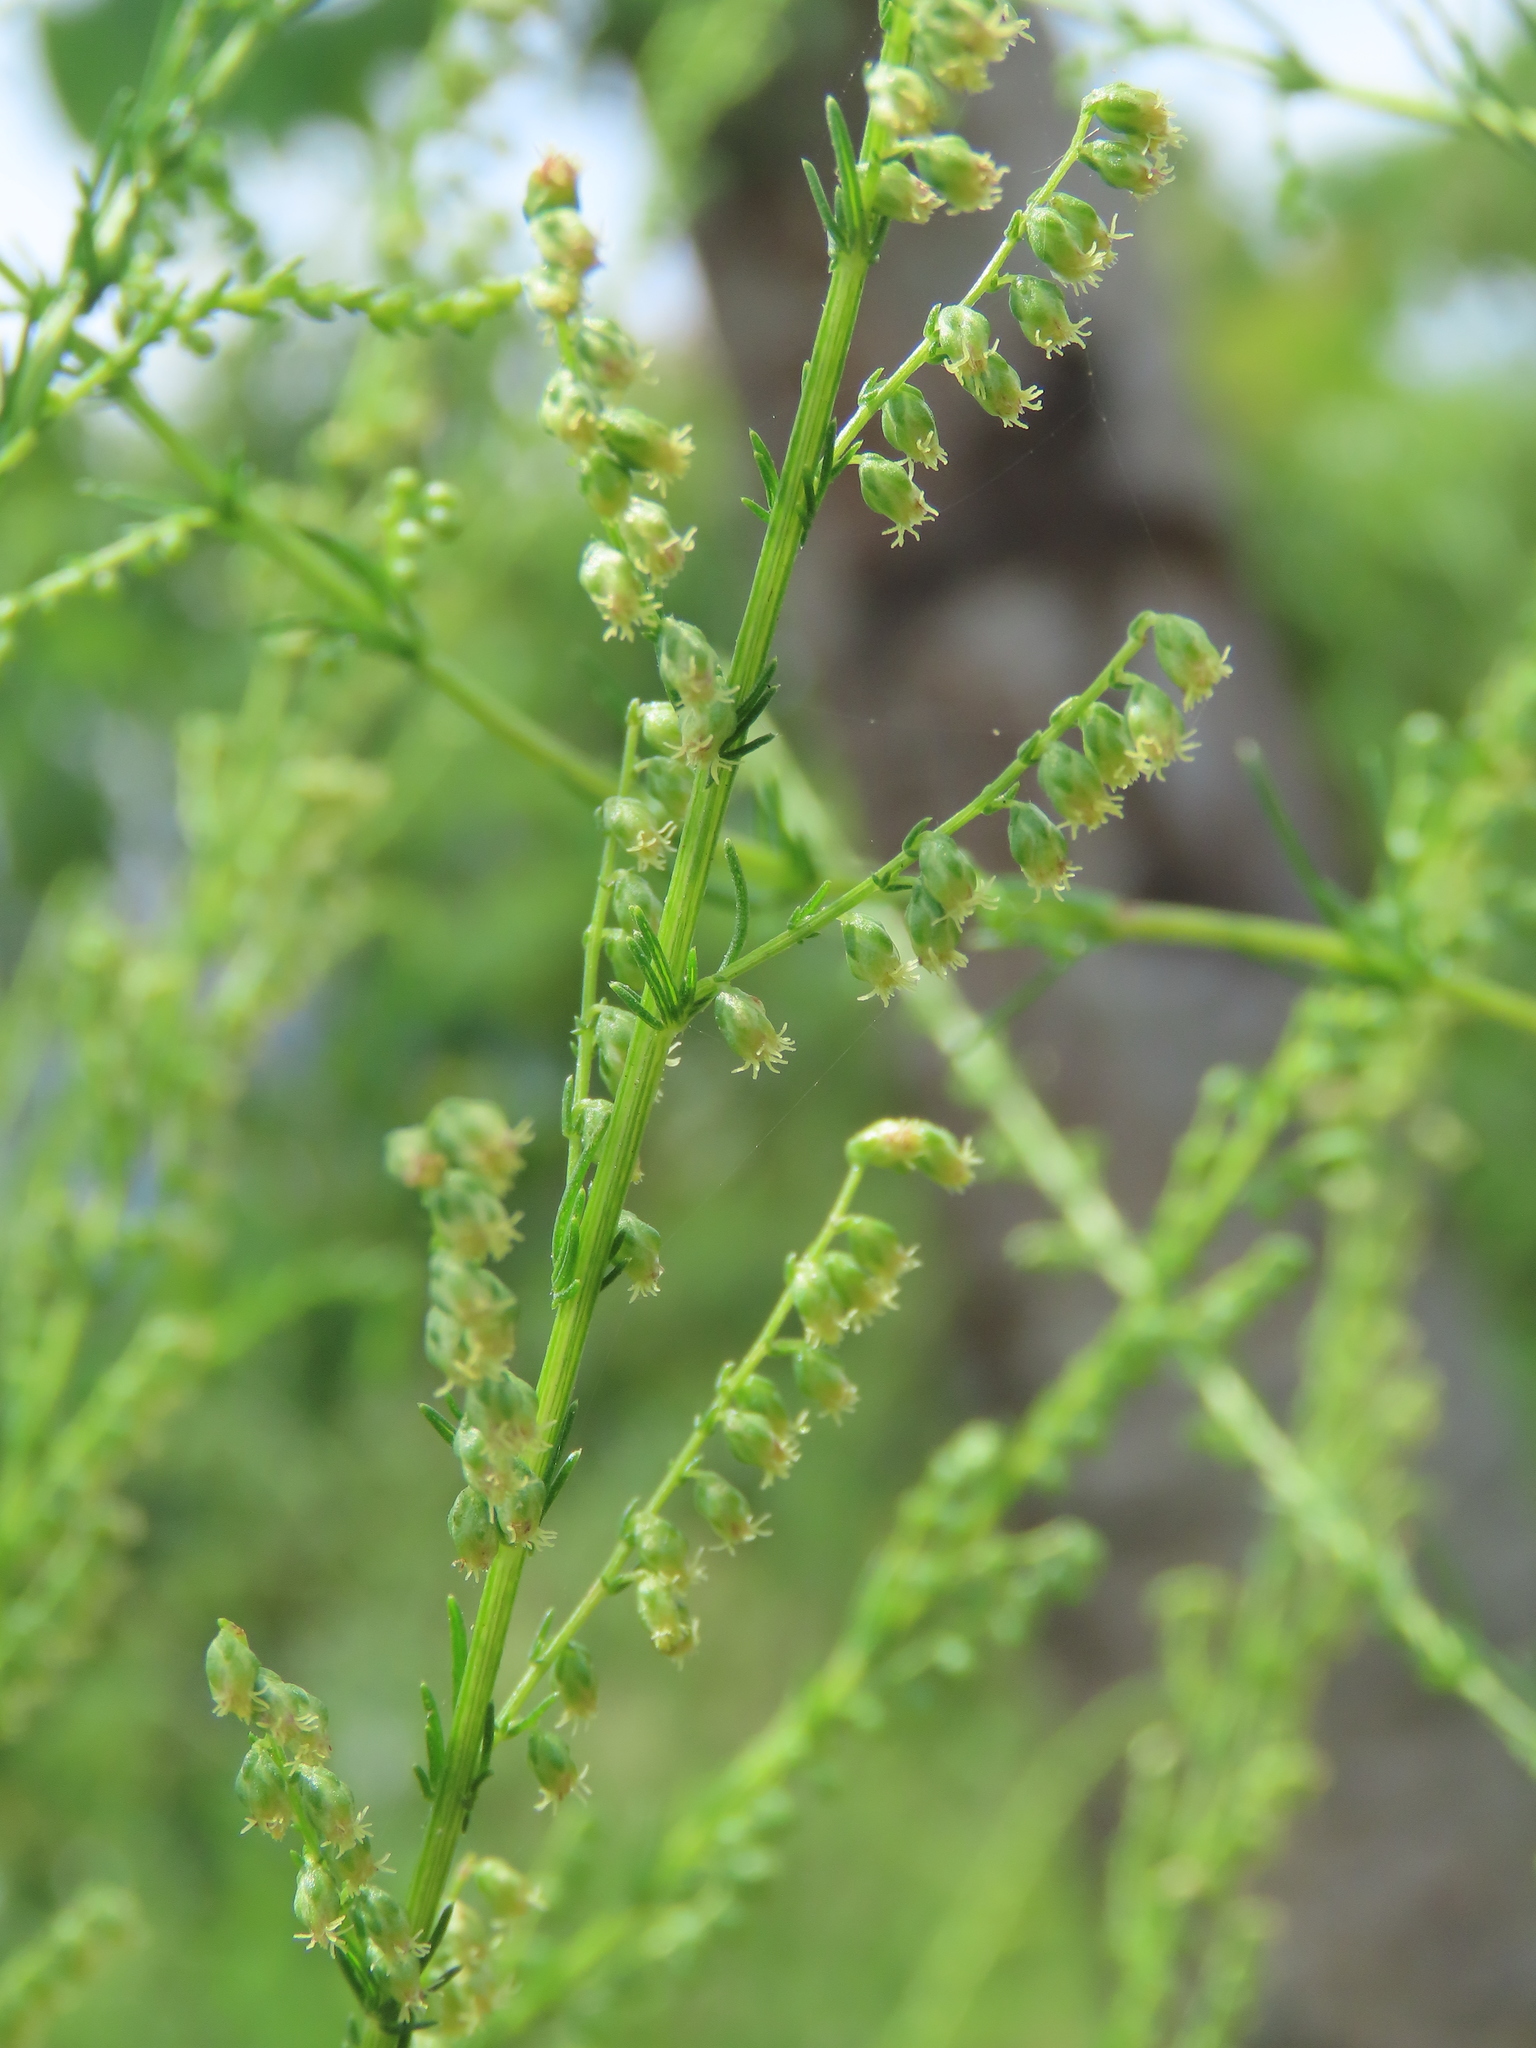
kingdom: Plantae
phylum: Tracheophyta
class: Magnoliopsida
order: Asterales
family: Asteraceae
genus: Artemisia
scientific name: Artemisia capillaris
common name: Yin-chen wormwood
